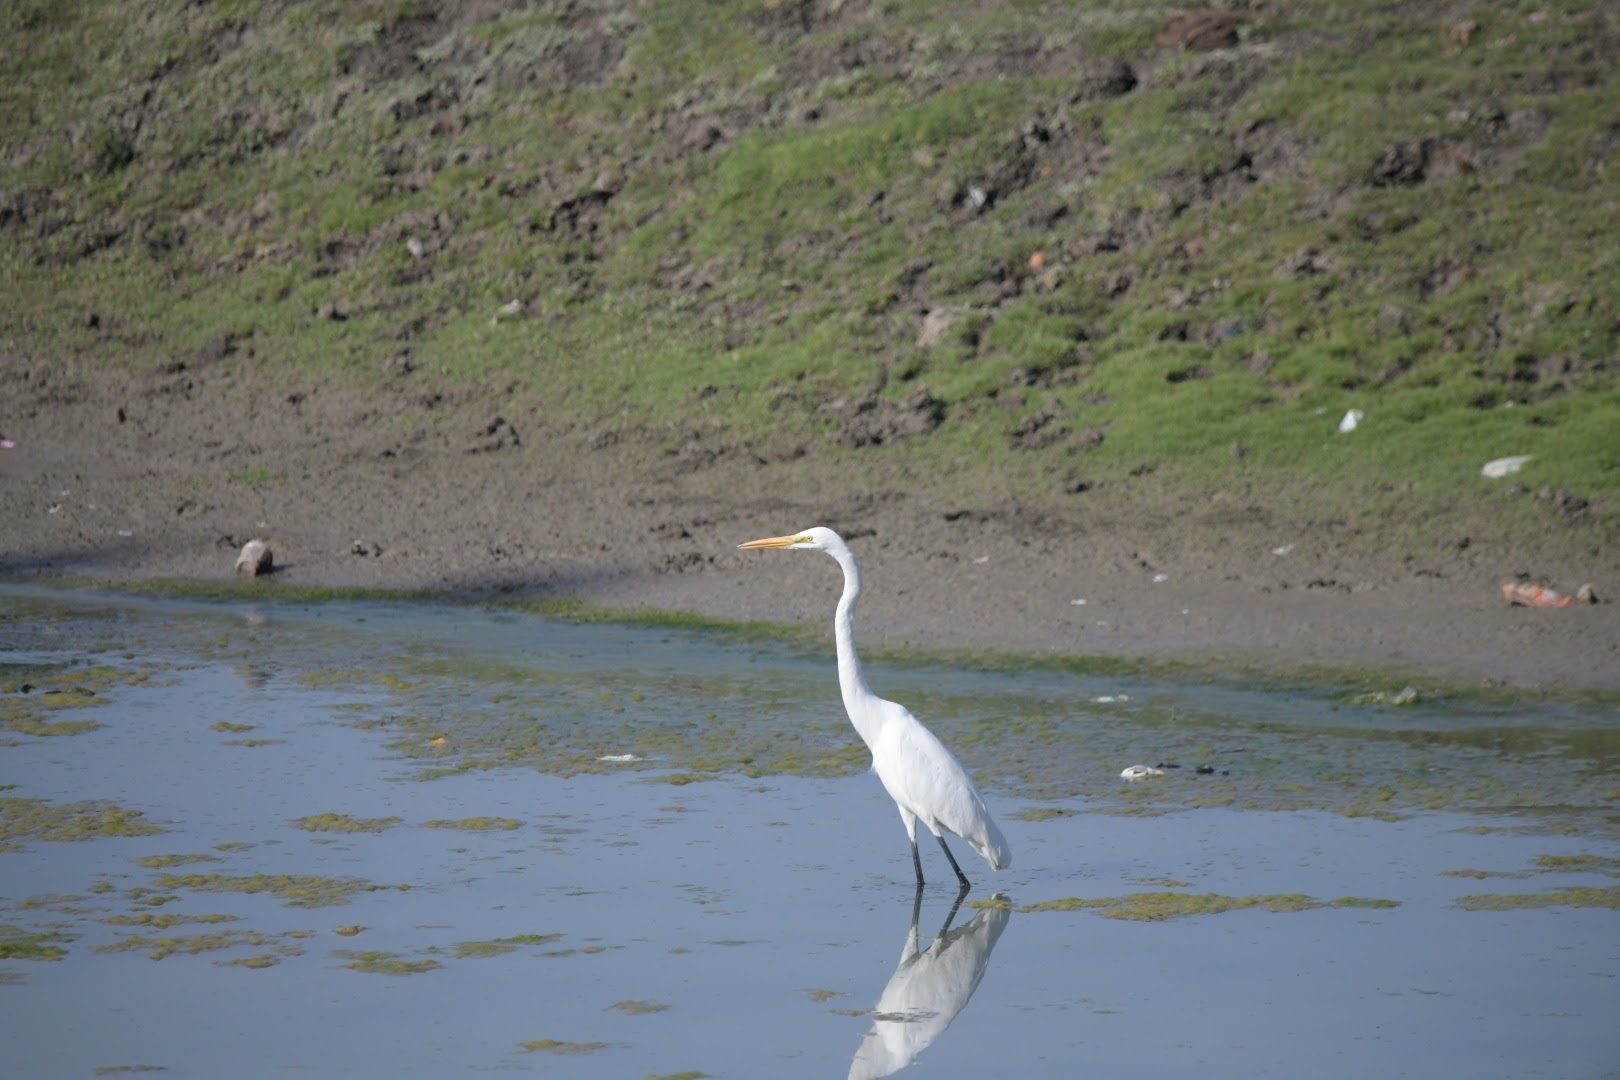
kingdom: Animalia
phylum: Chordata
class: Aves
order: Pelecaniformes
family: Ardeidae
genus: Ardea
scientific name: Ardea alba
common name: Great egret
